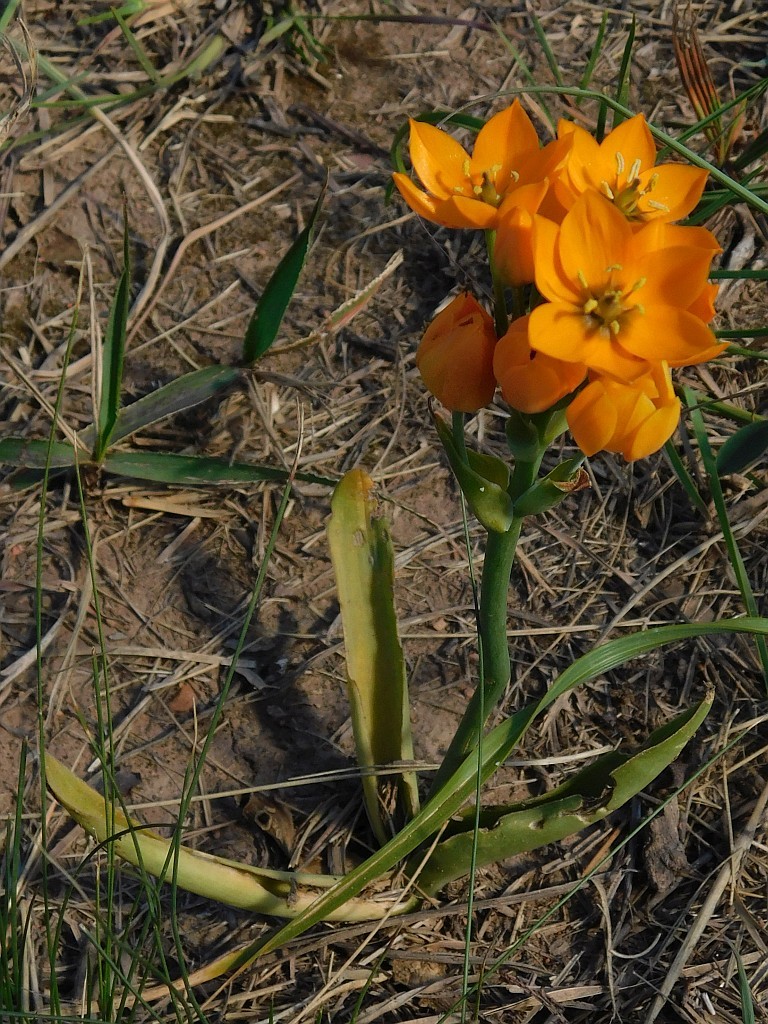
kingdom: Plantae
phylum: Tracheophyta
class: Liliopsida
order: Asparagales
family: Asparagaceae
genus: Ornithogalum
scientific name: Ornithogalum dubium
